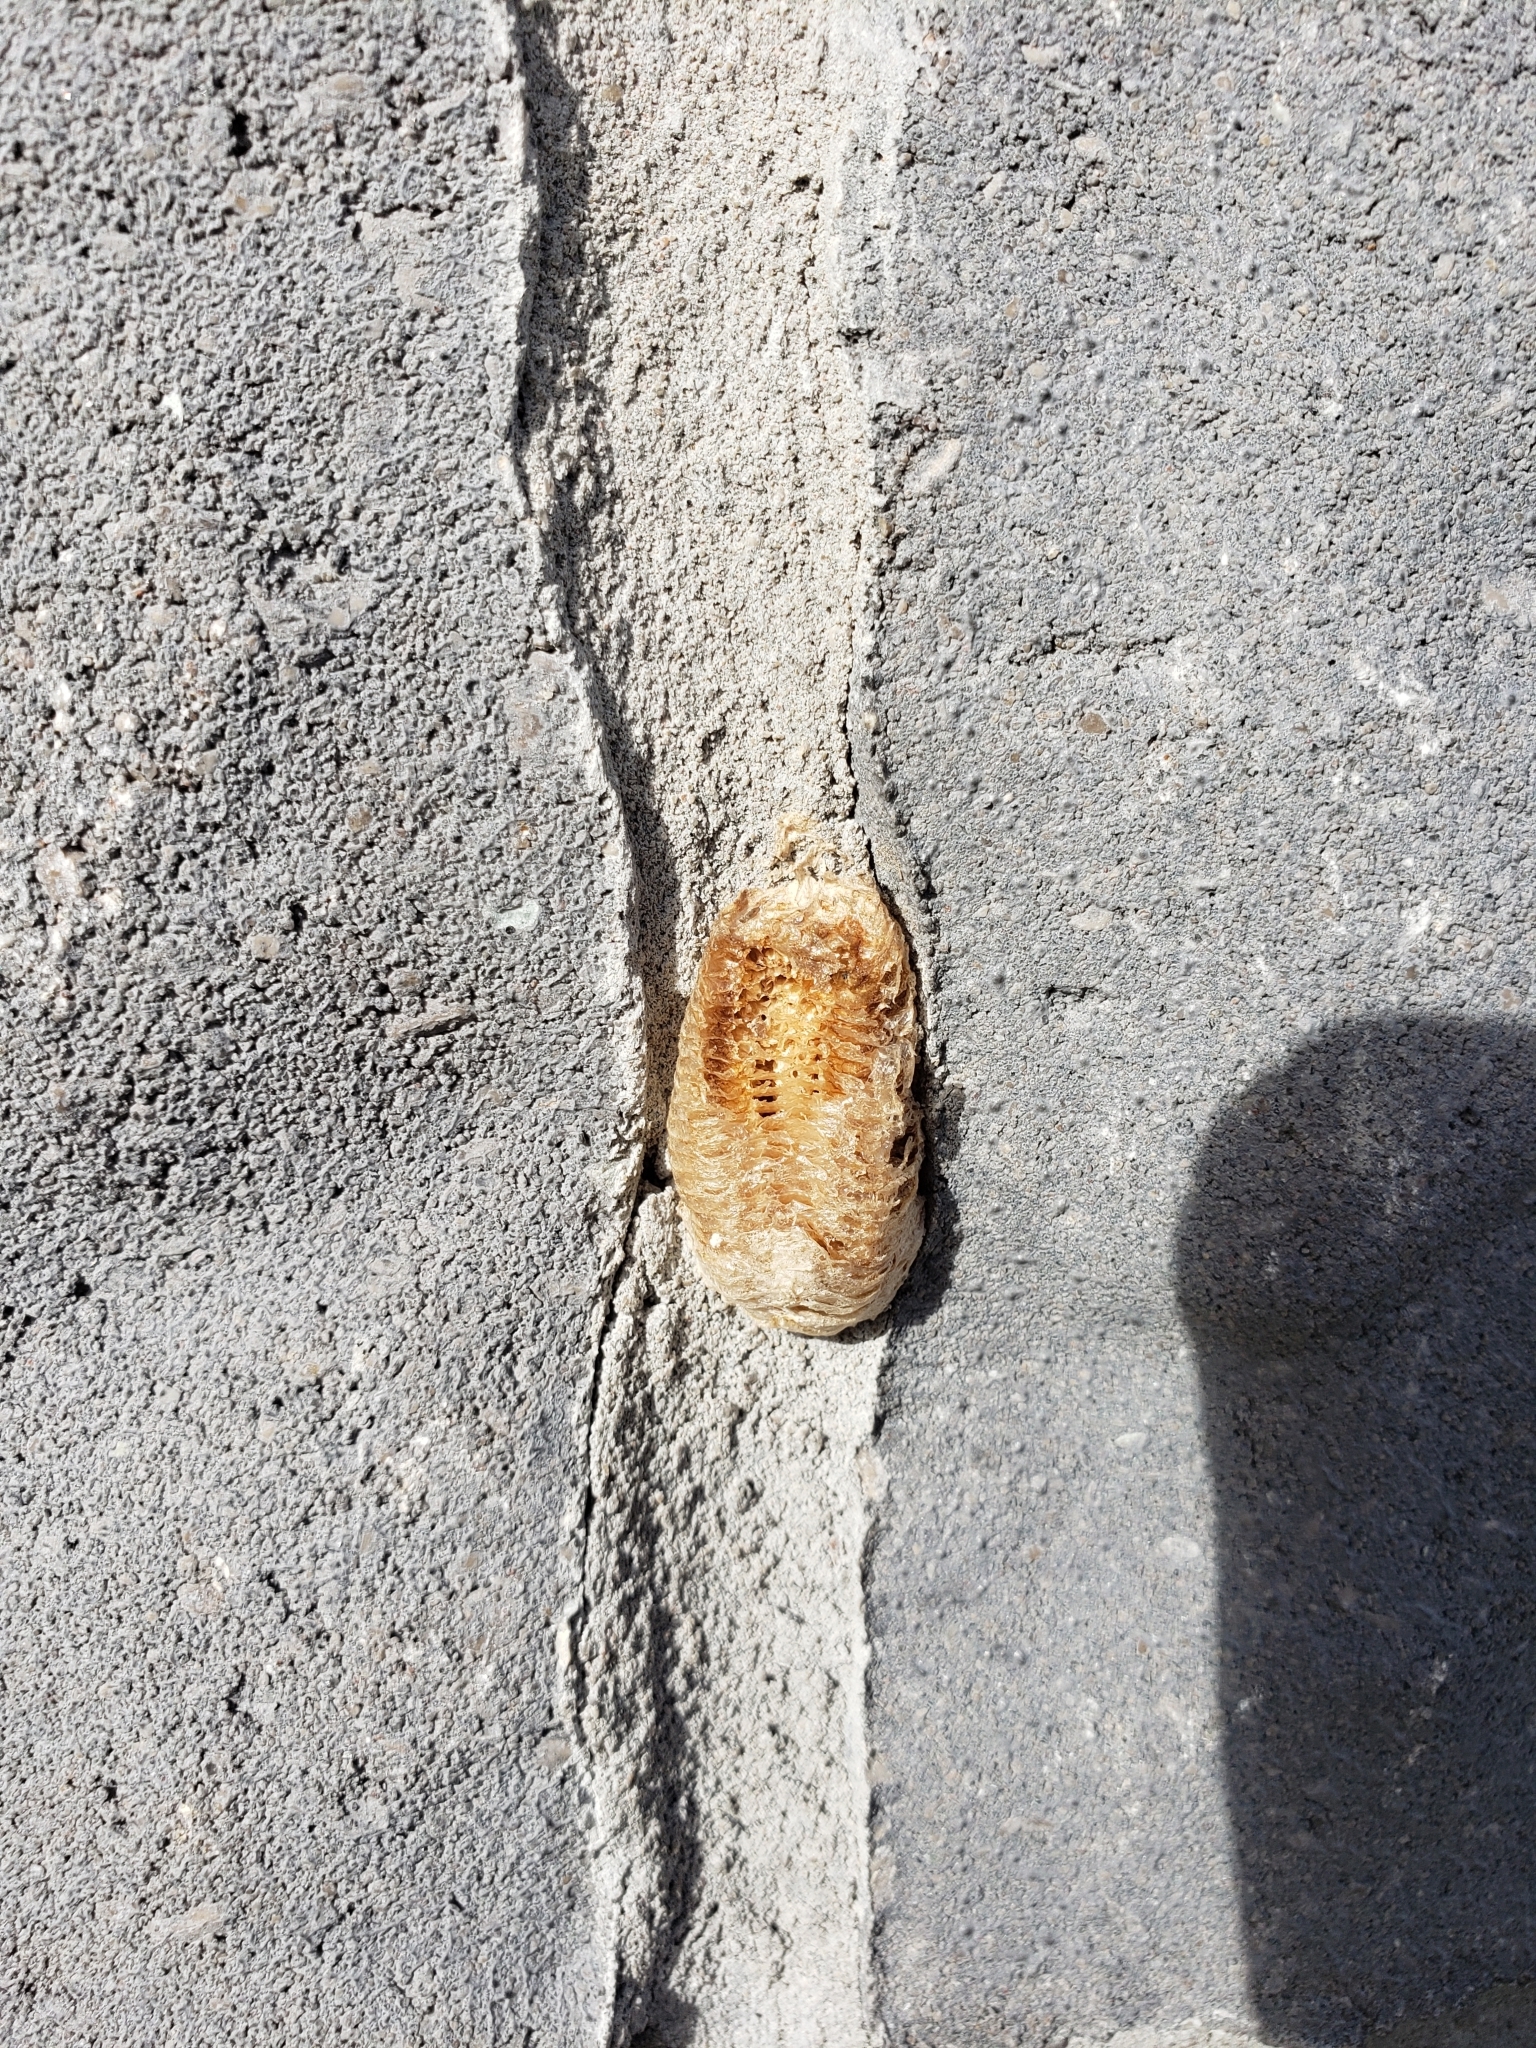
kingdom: Animalia
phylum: Arthropoda
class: Insecta
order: Mantodea
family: Mantidae
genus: Mantis
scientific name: Mantis religiosa
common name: Praying mantis
